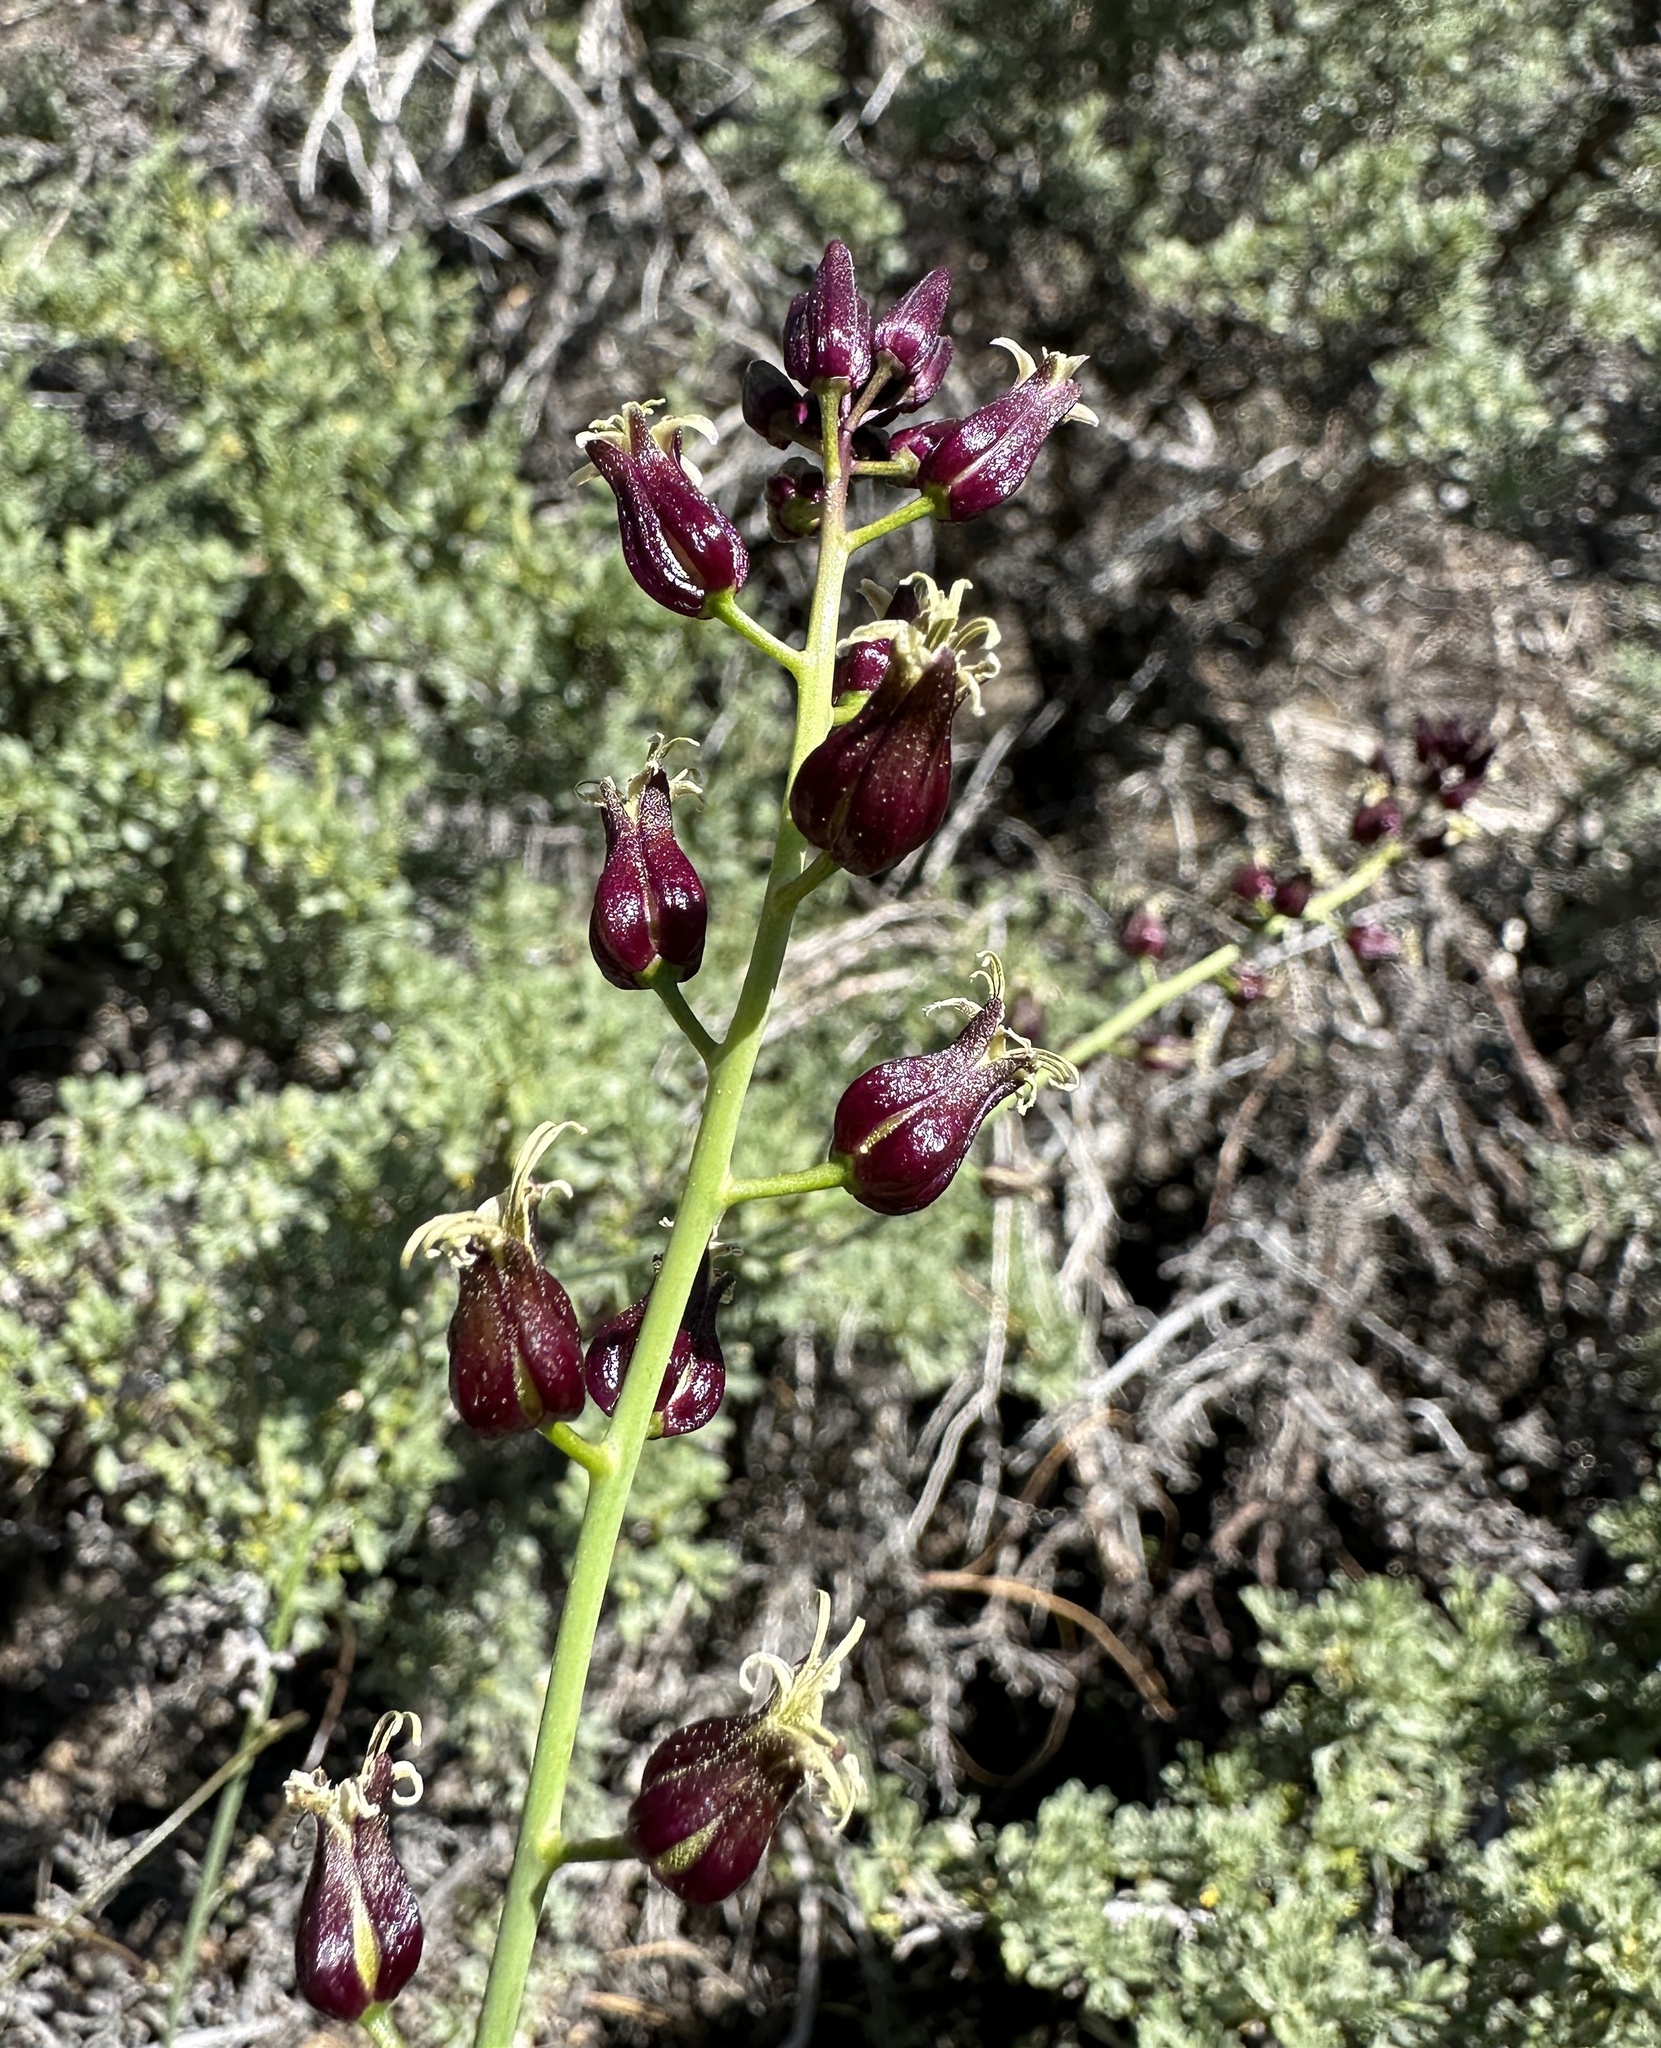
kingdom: Plantae
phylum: Tracheophyta
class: Magnoliopsida
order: Brassicales
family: Brassicaceae
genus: Streptanthus
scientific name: Streptanthus pilosus
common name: Chocolate drops
